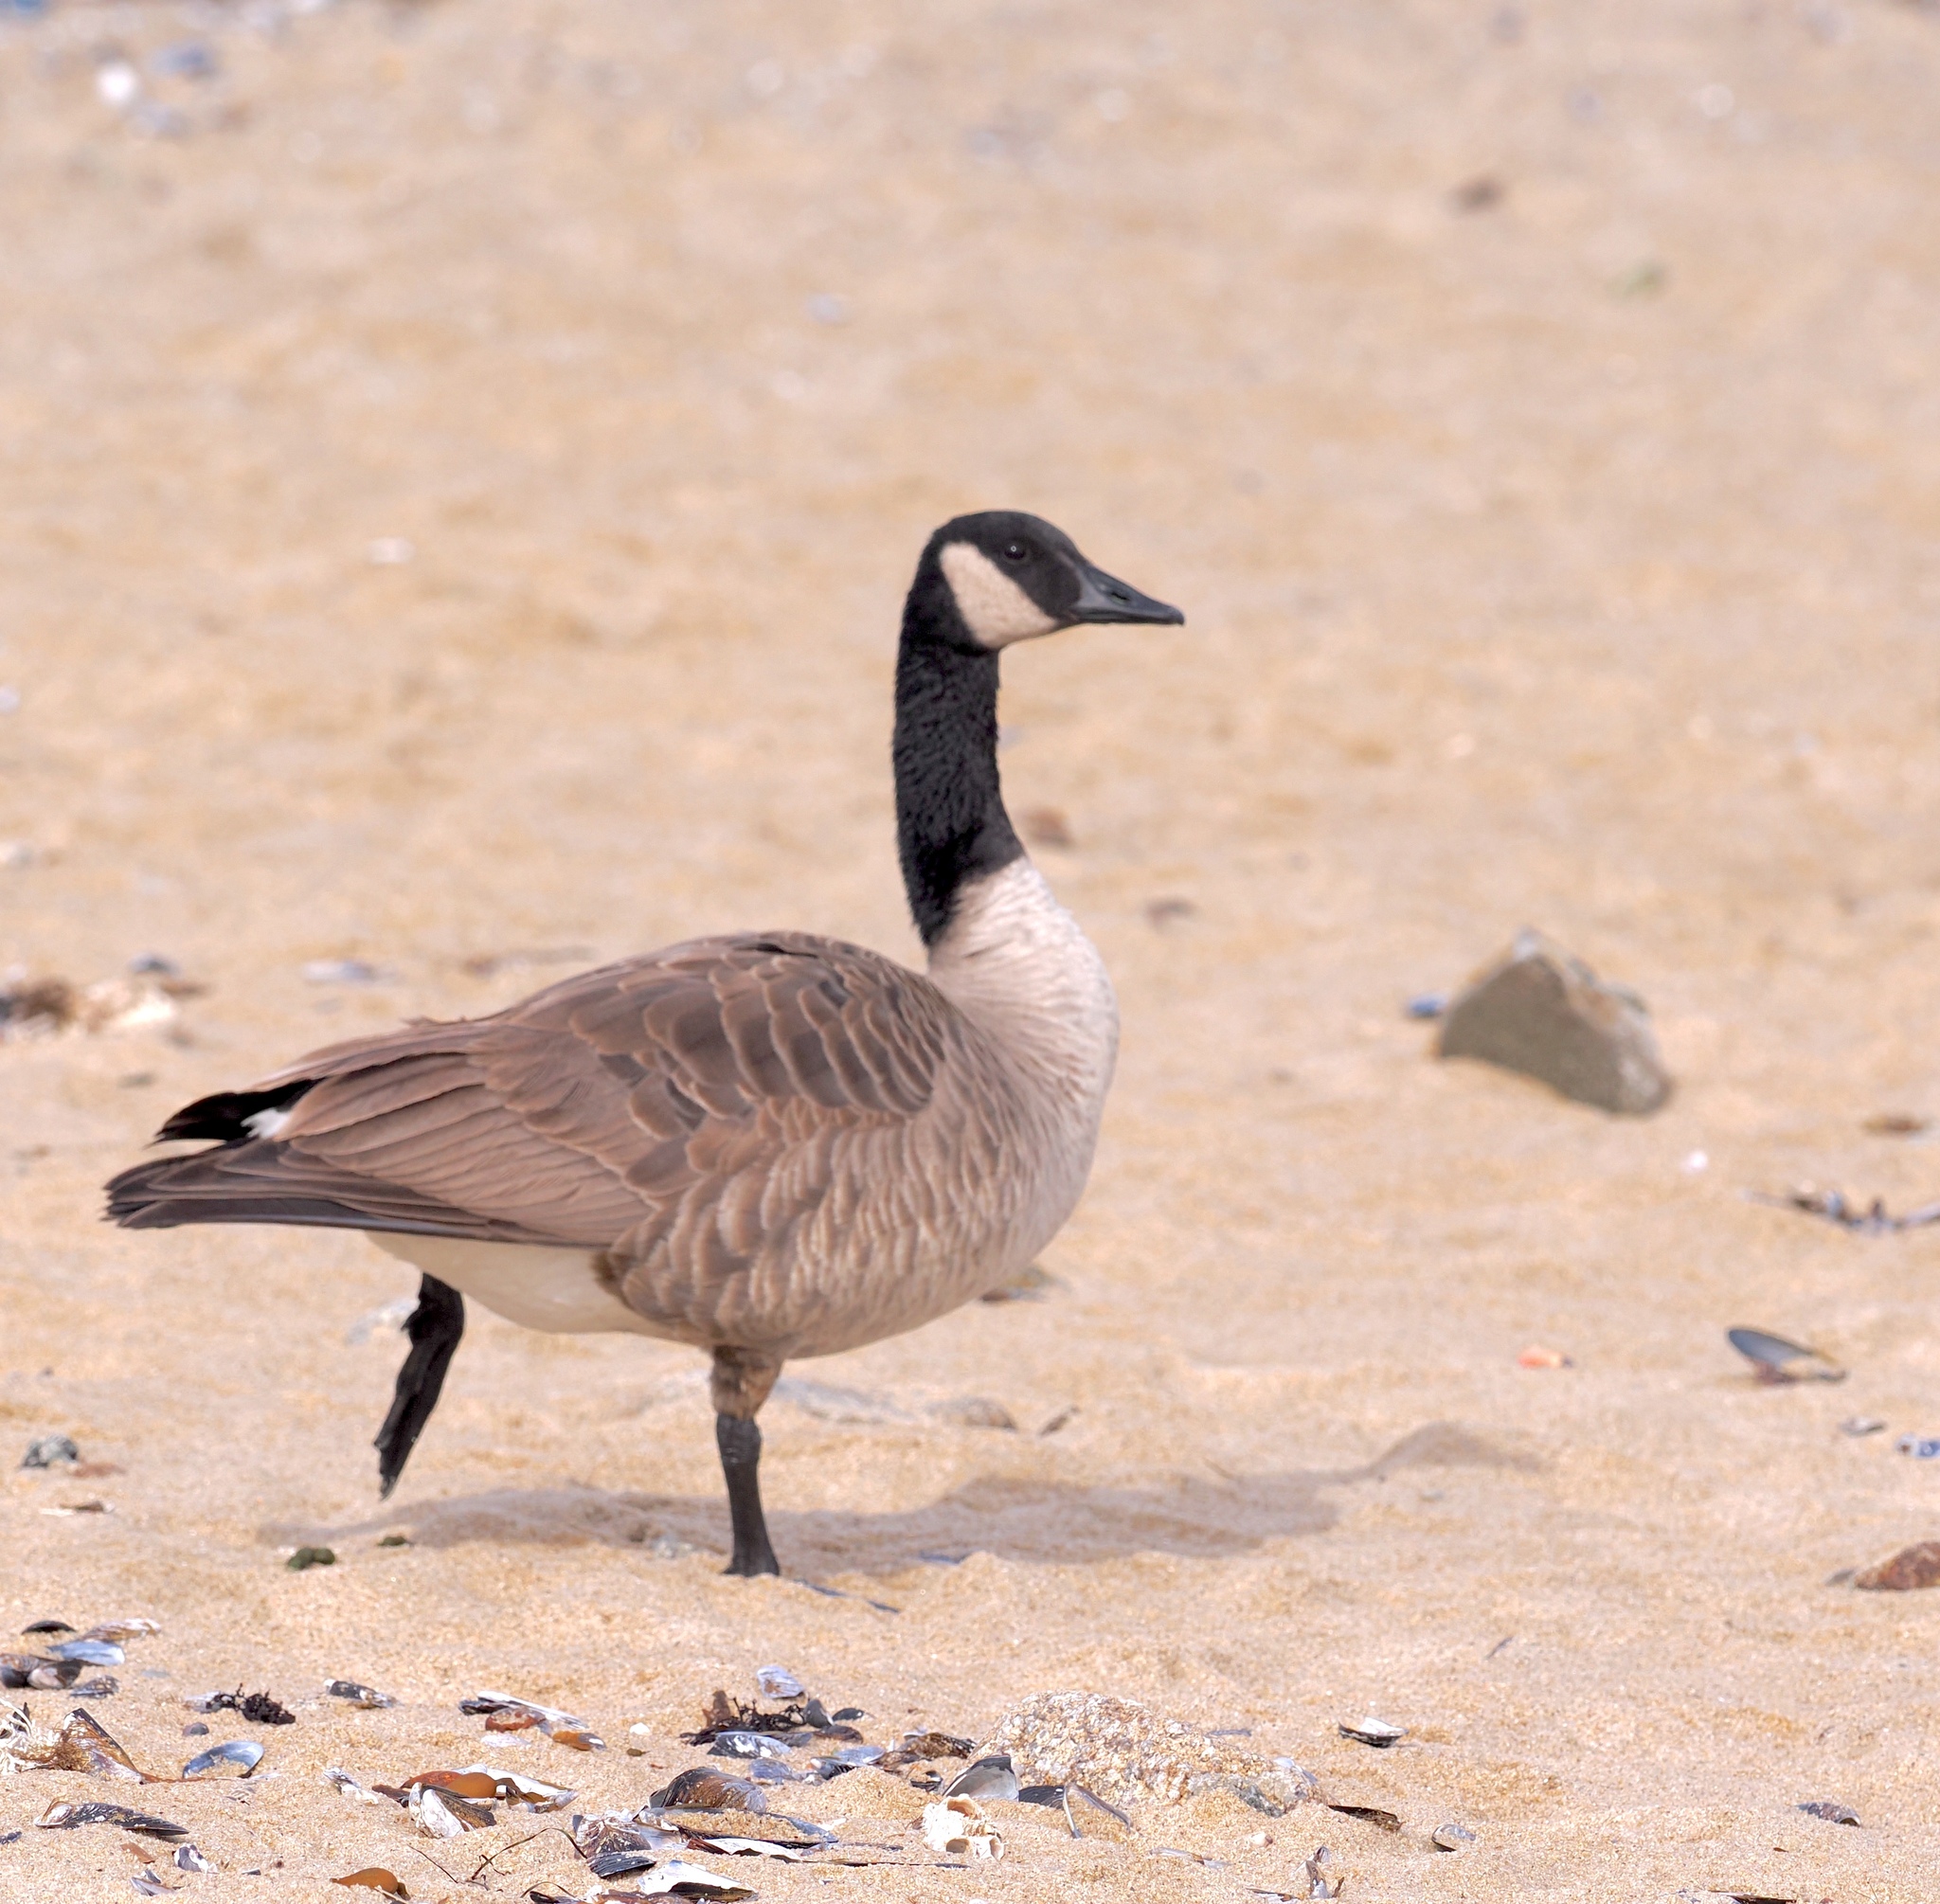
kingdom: Animalia
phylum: Chordata
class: Aves
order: Anseriformes
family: Anatidae
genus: Branta
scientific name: Branta canadensis
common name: Canada goose
